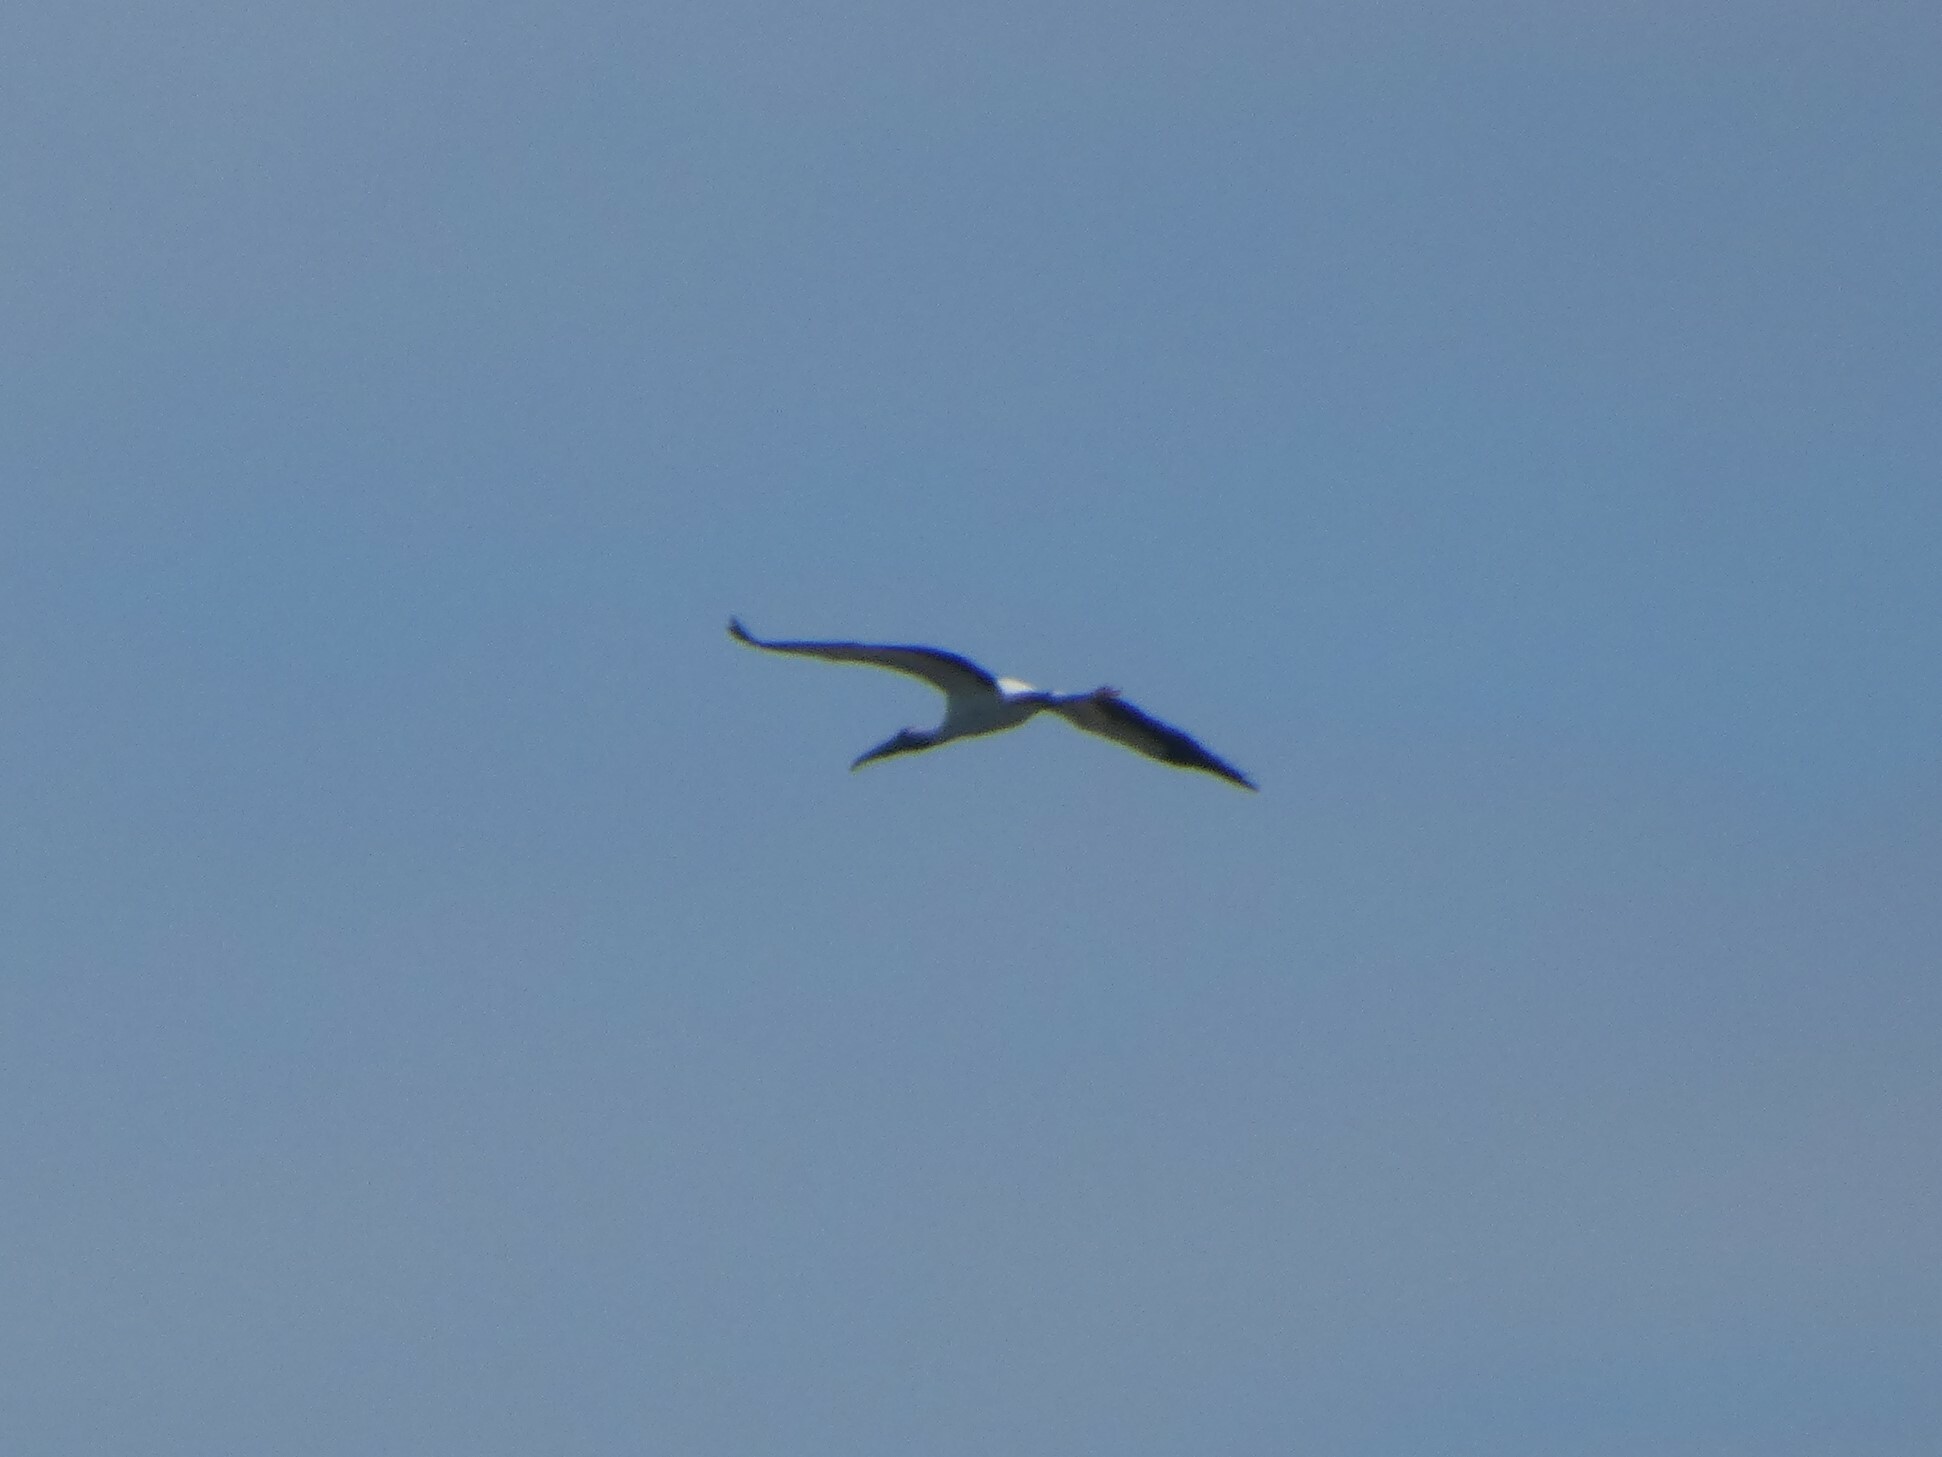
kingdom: Animalia
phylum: Chordata
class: Aves
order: Ciconiiformes
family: Ciconiidae
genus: Mycteria
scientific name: Mycteria americana
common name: Wood stork
